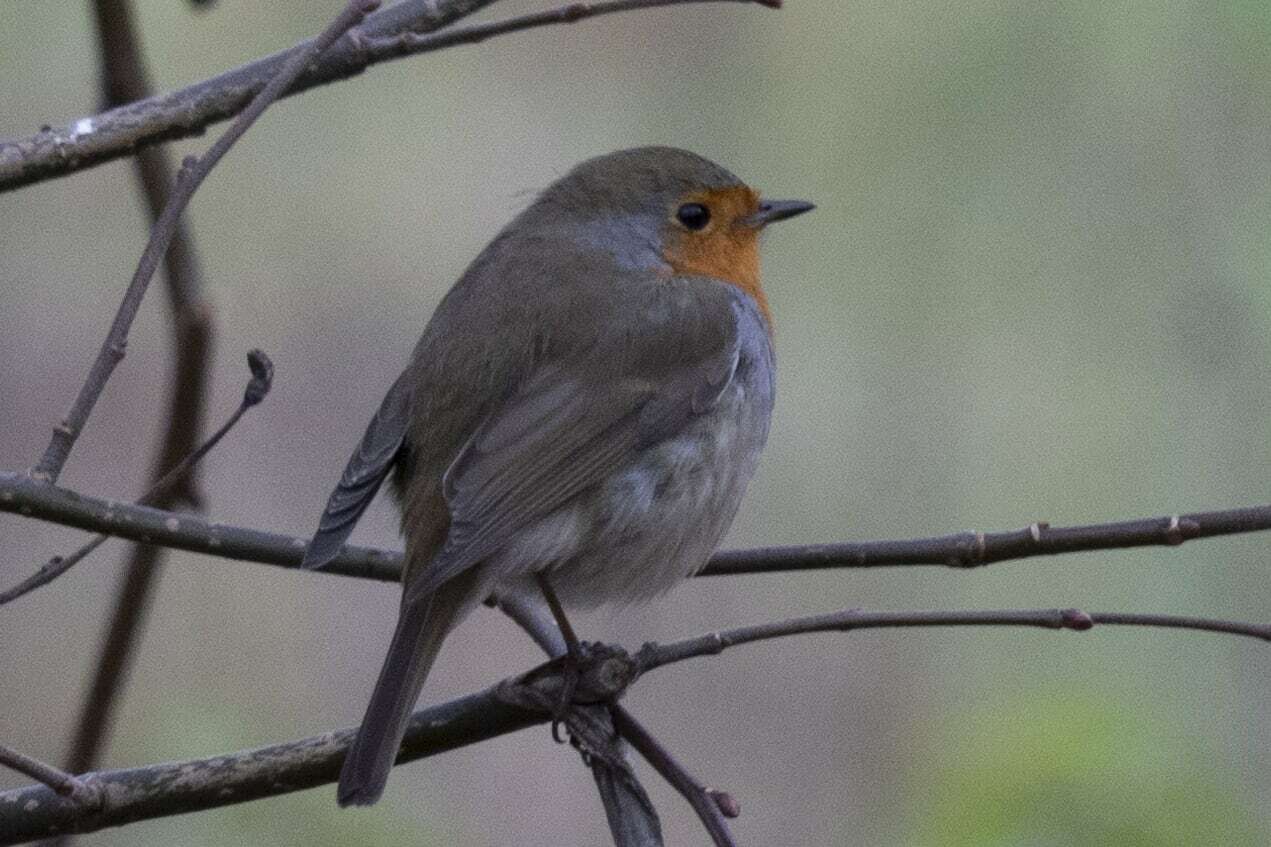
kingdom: Animalia
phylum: Chordata
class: Aves
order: Passeriformes
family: Muscicapidae
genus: Erithacus
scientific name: Erithacus rubecula
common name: European robin
